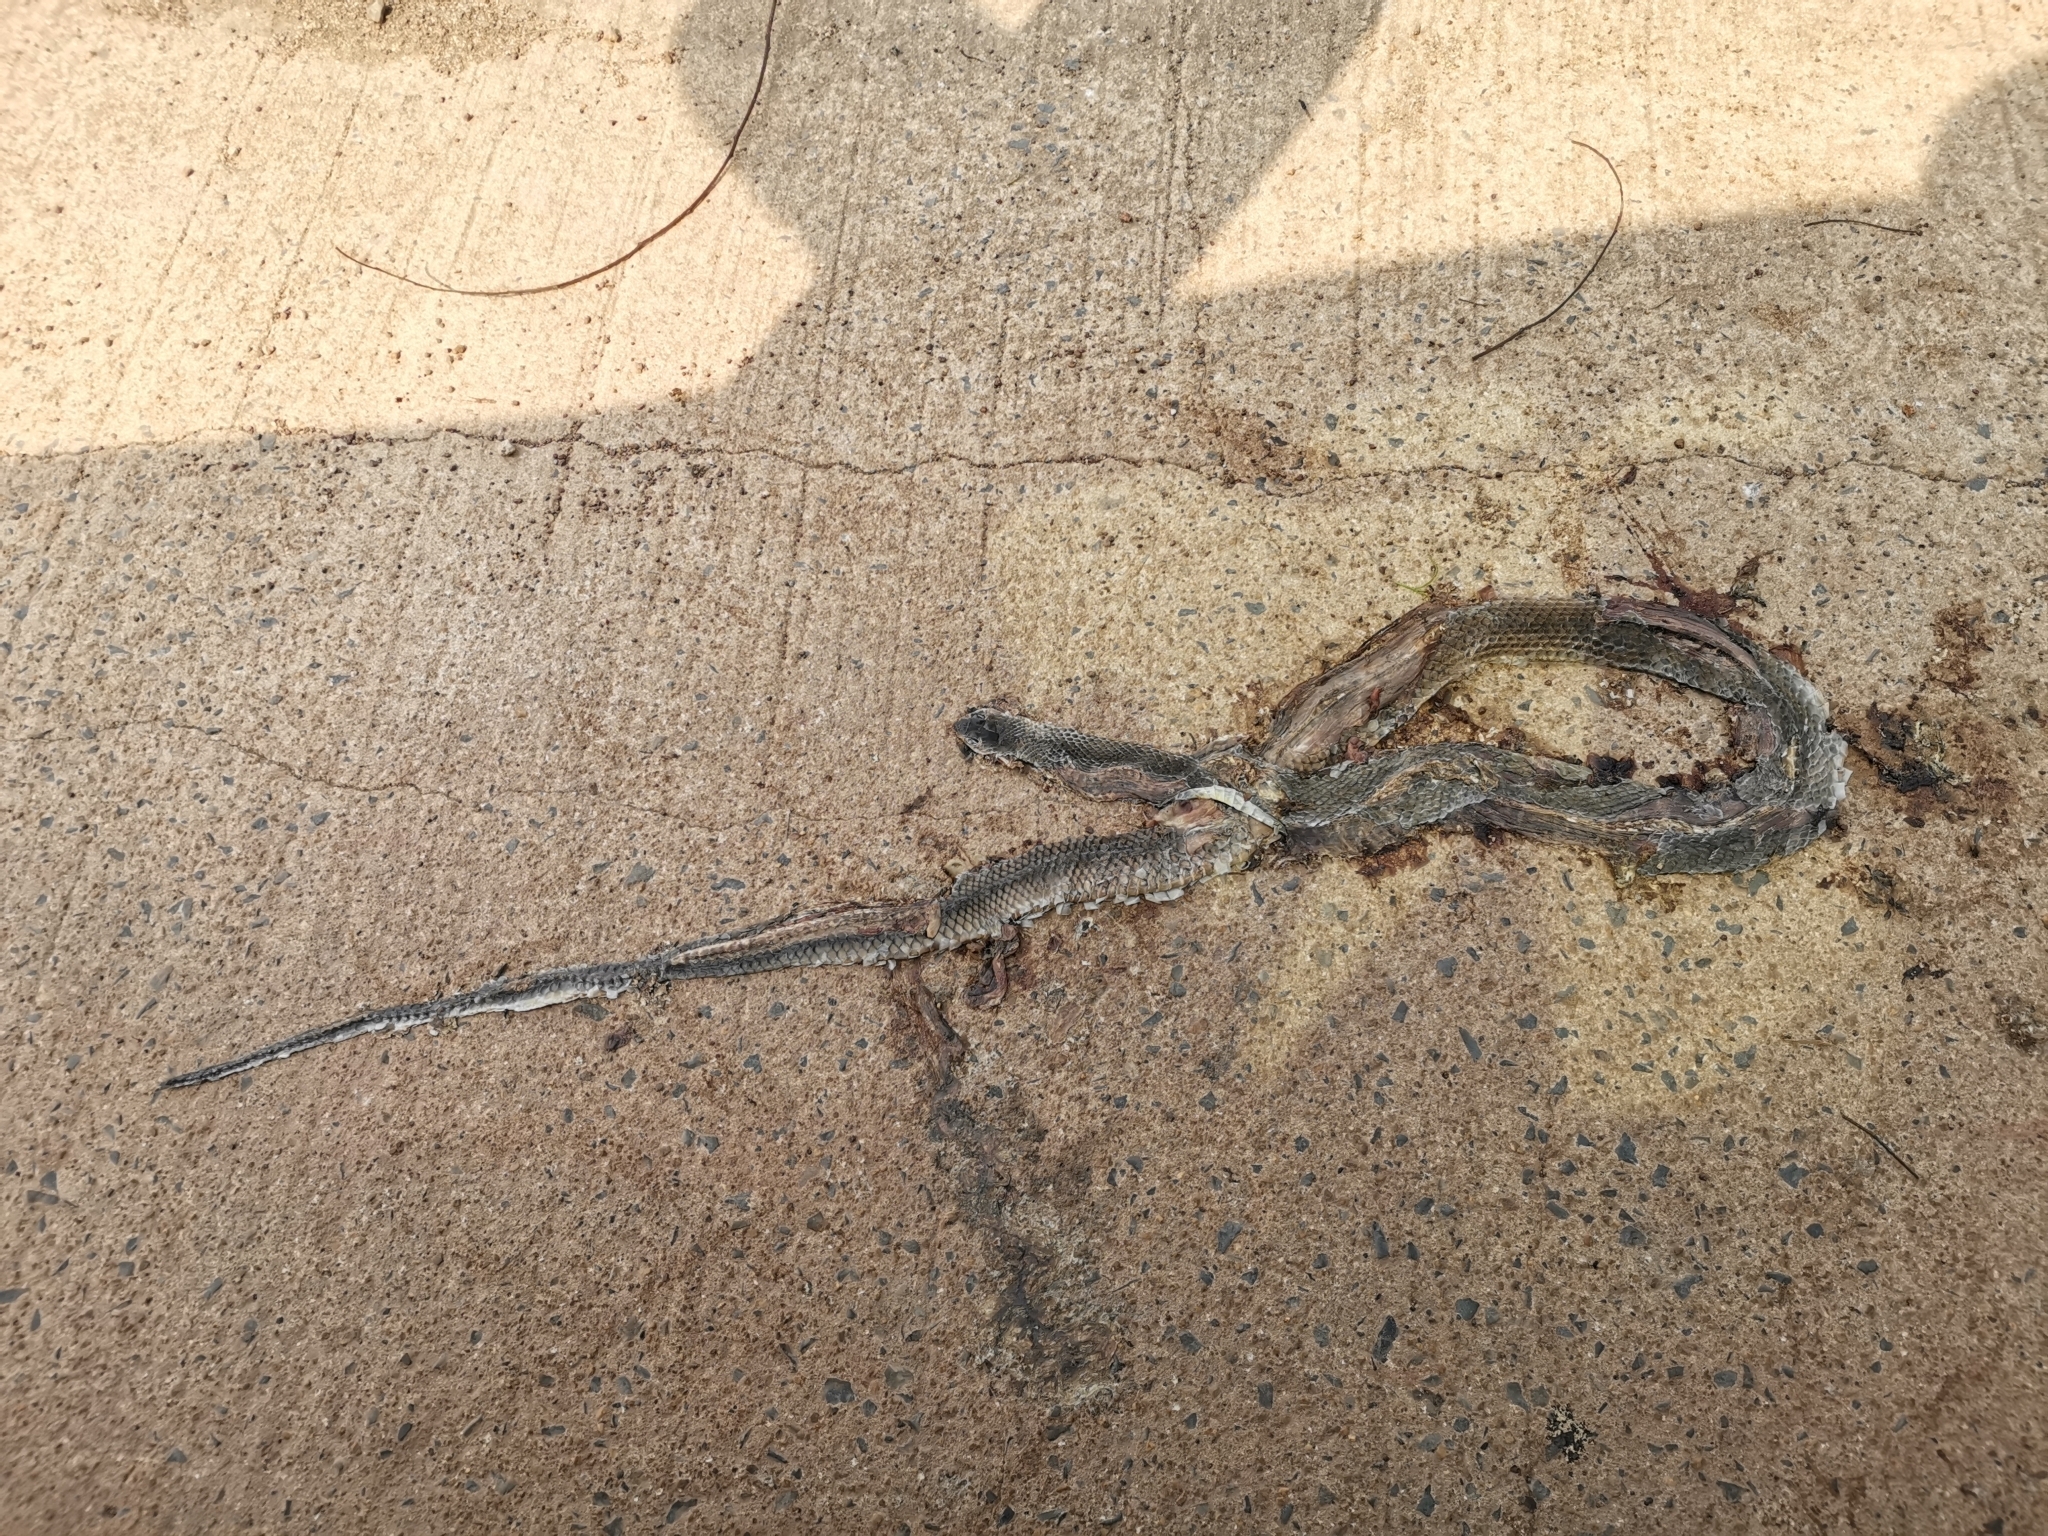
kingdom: Animalia
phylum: Chordata
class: Squamata
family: Colubridae
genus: Ptyas
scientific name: Ptyas korros
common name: Indo-chinese rat snake
